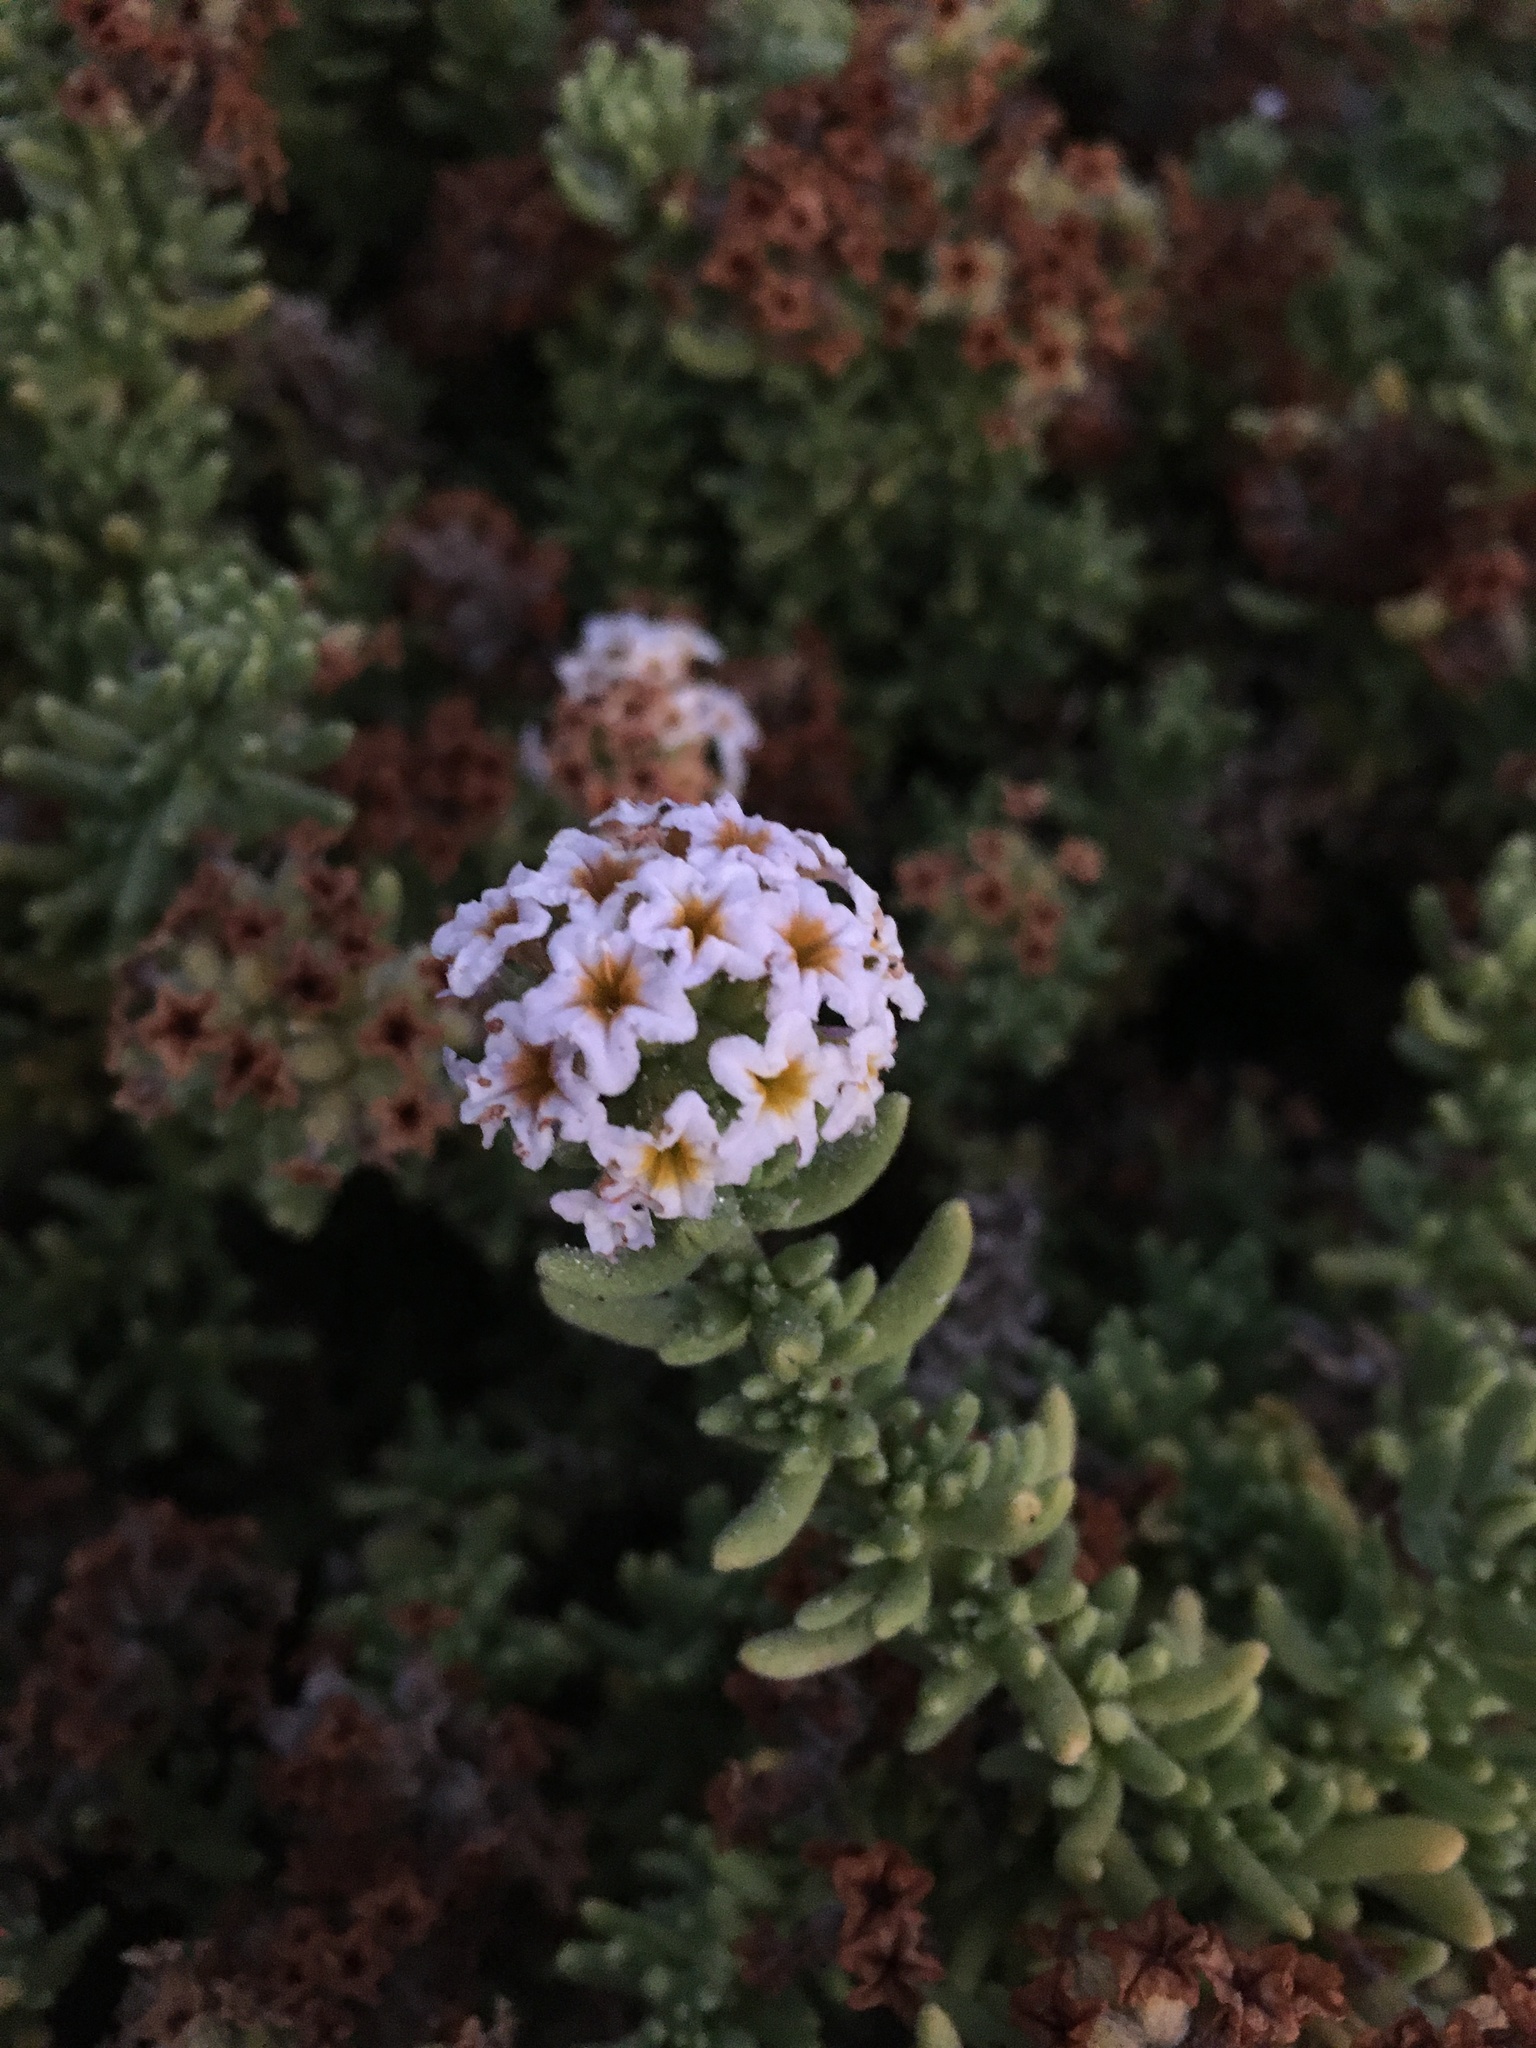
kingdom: Plantae
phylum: Tracheophyta
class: Magnoliopsida
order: Boraginales
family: Heliotropiaceae
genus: Heliotropium
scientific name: Heliotropium pycnophyllum
